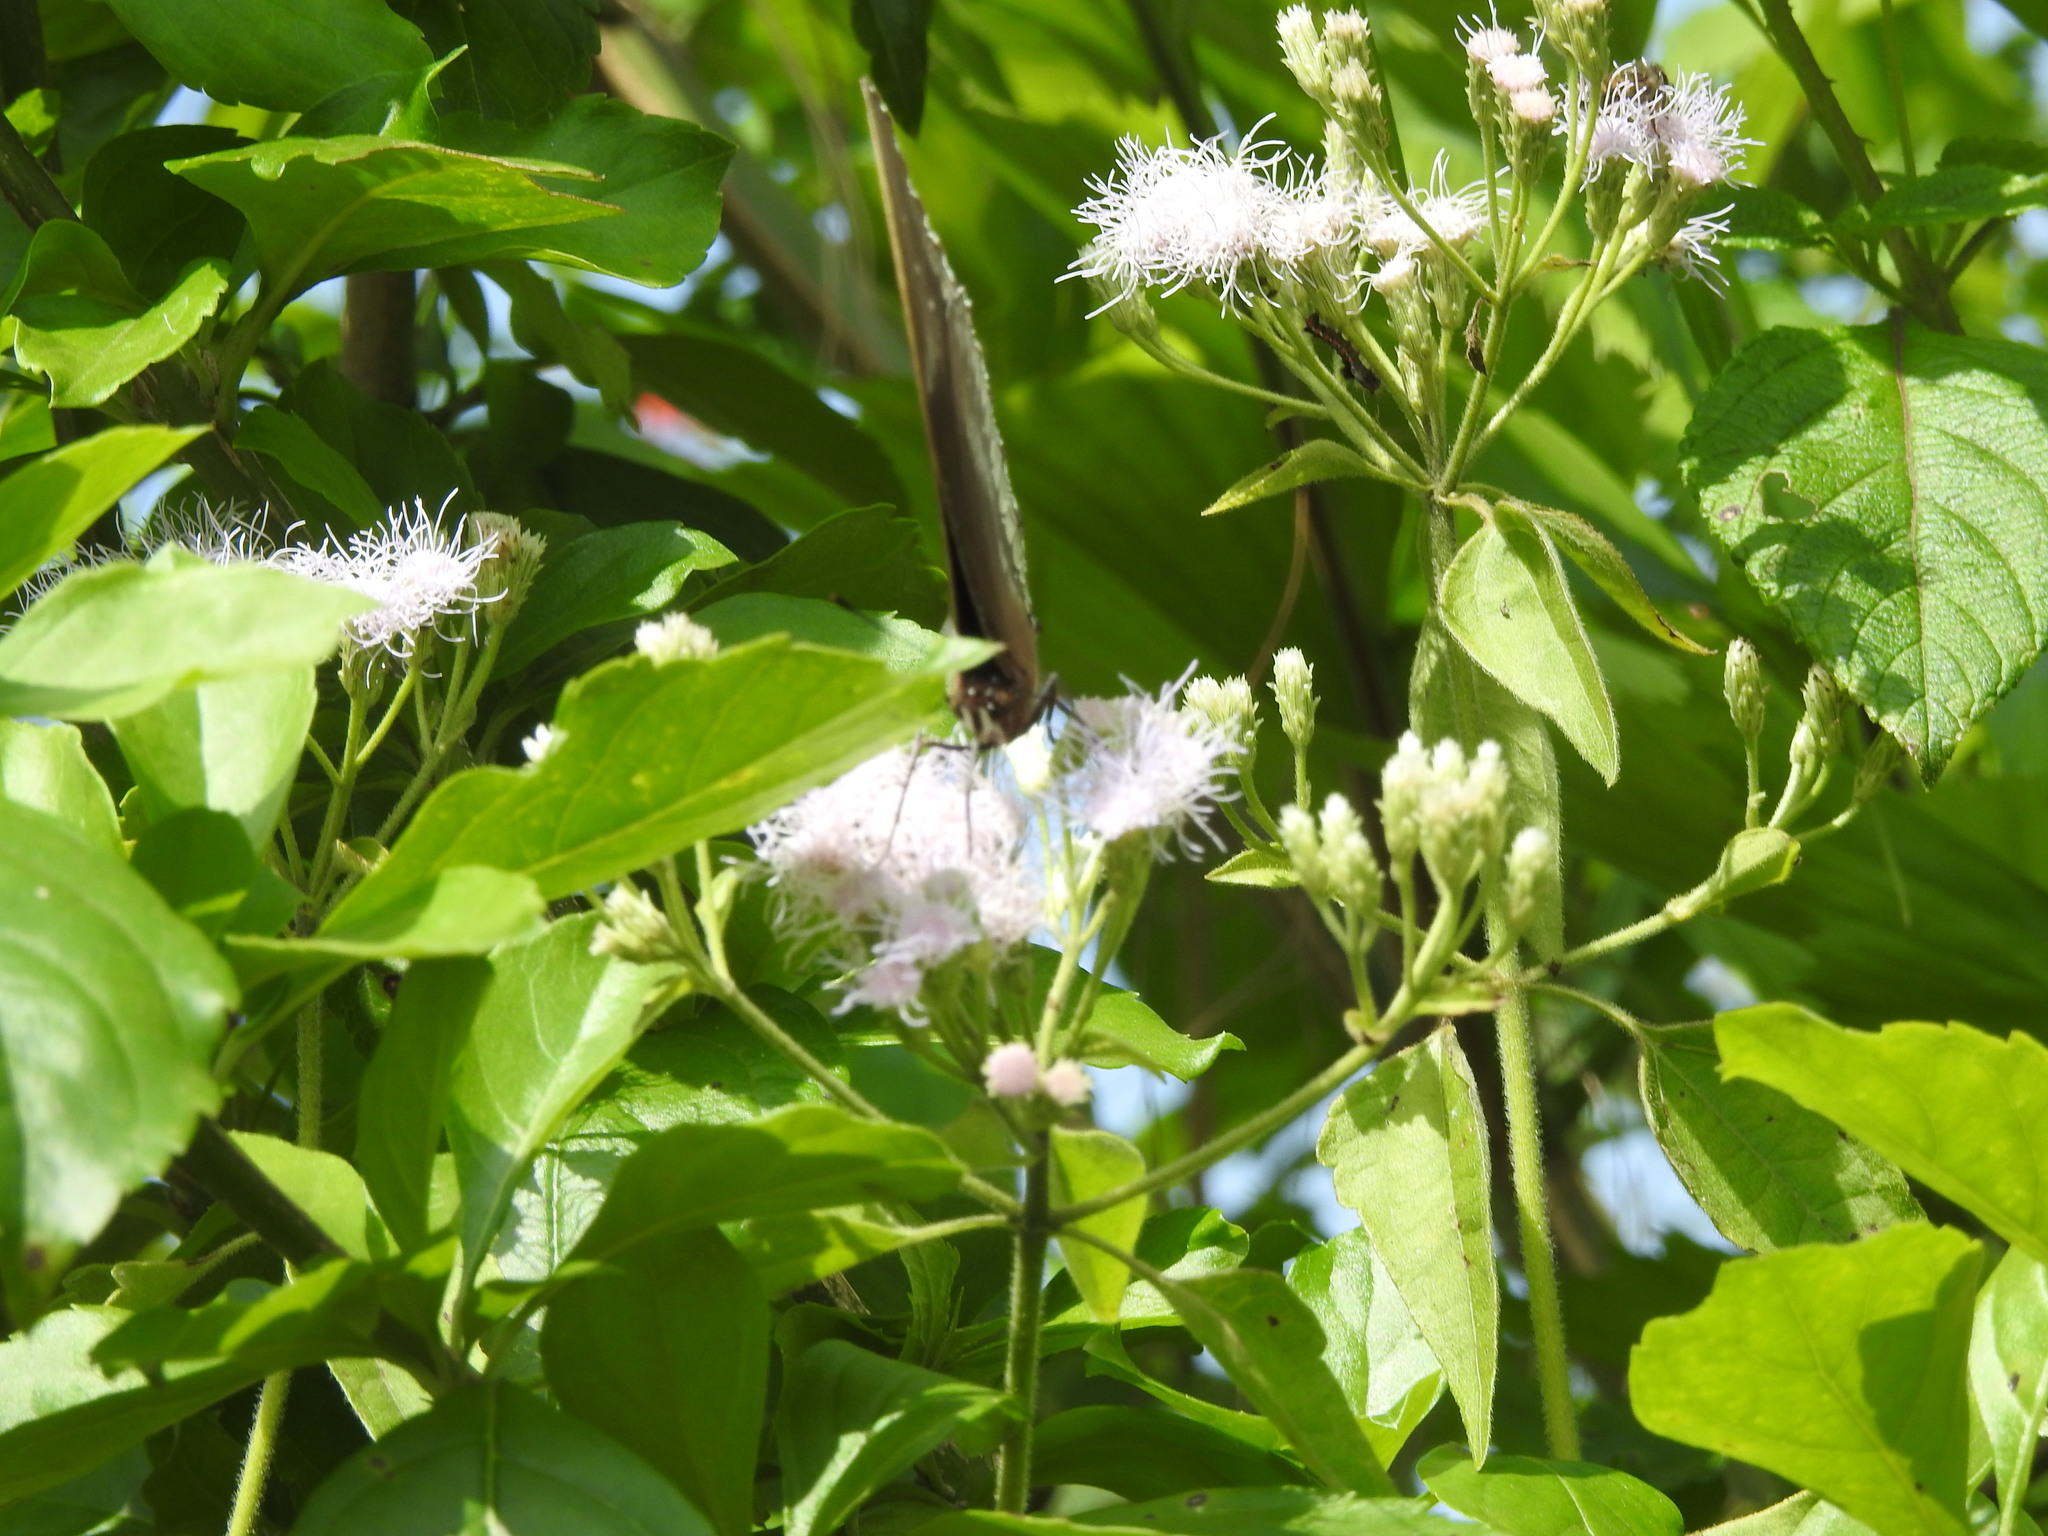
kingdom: Plantae
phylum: Tracheophyta
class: Magnoliopsida
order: Asterales
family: Asteraceae
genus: Chromolaena
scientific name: Chromolaena odorata
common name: Siamweed
